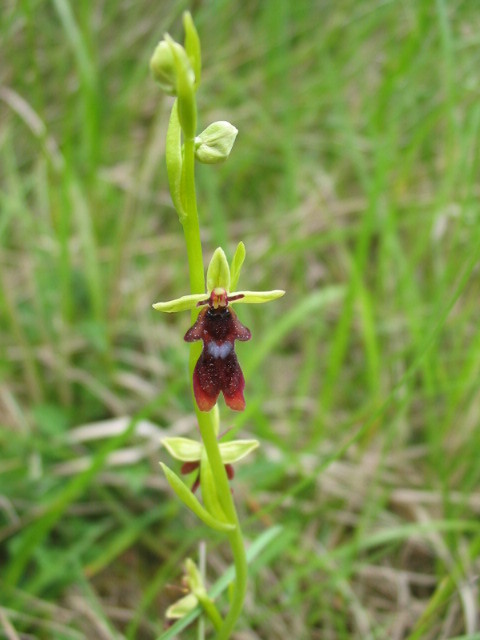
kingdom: Plantae
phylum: Tracheophyta
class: Liliopsida
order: Asparagales
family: Orchidaceae
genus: Ophrys
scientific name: Ophrys insectifera
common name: Fly orchid
